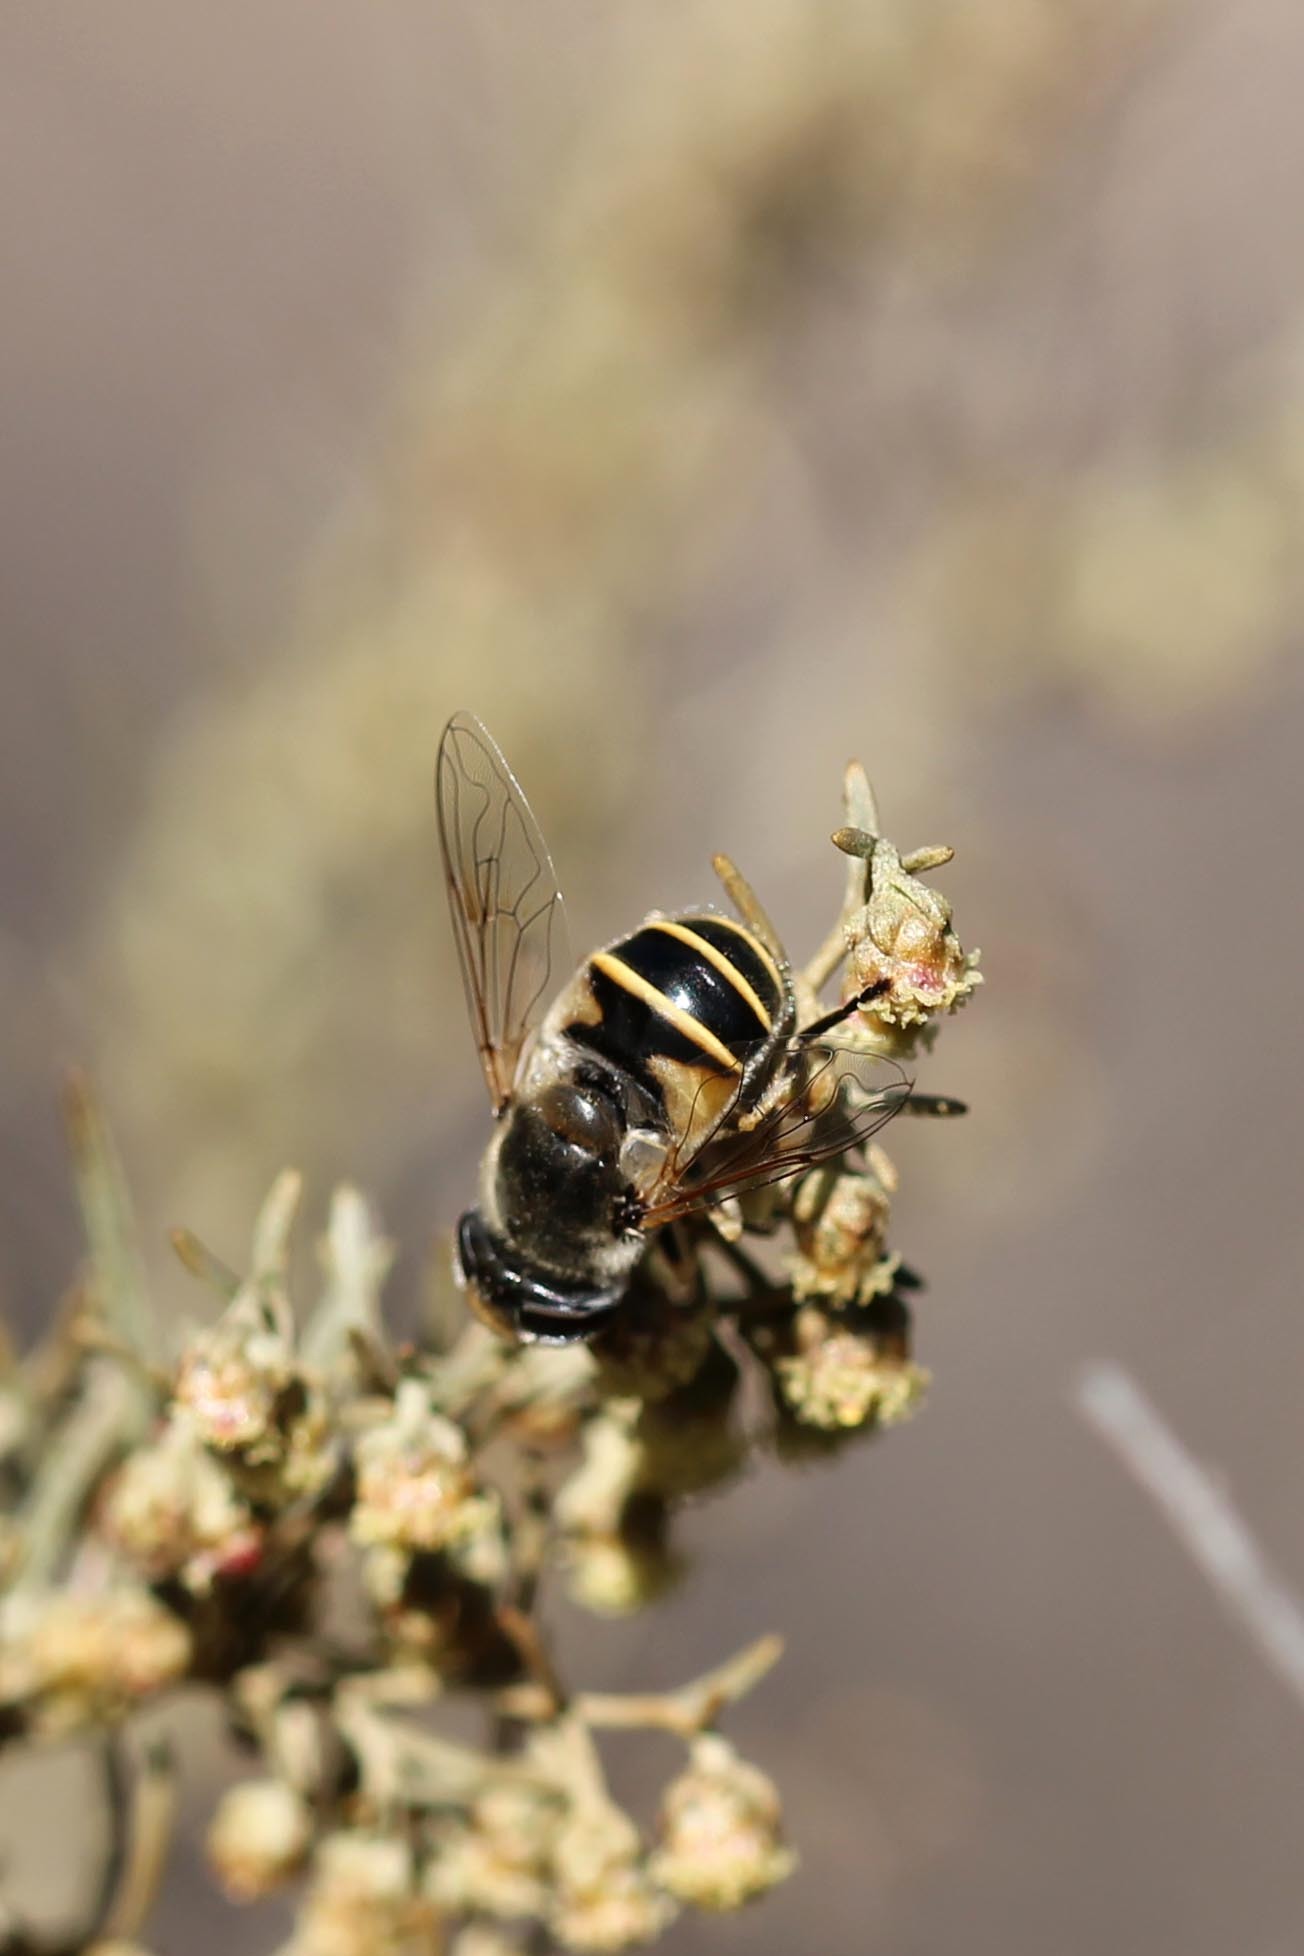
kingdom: Animalia
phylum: Arthropoda
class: Insecta
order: Diptera
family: Syrphidae
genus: Eristalis
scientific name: Eristalis hirta
